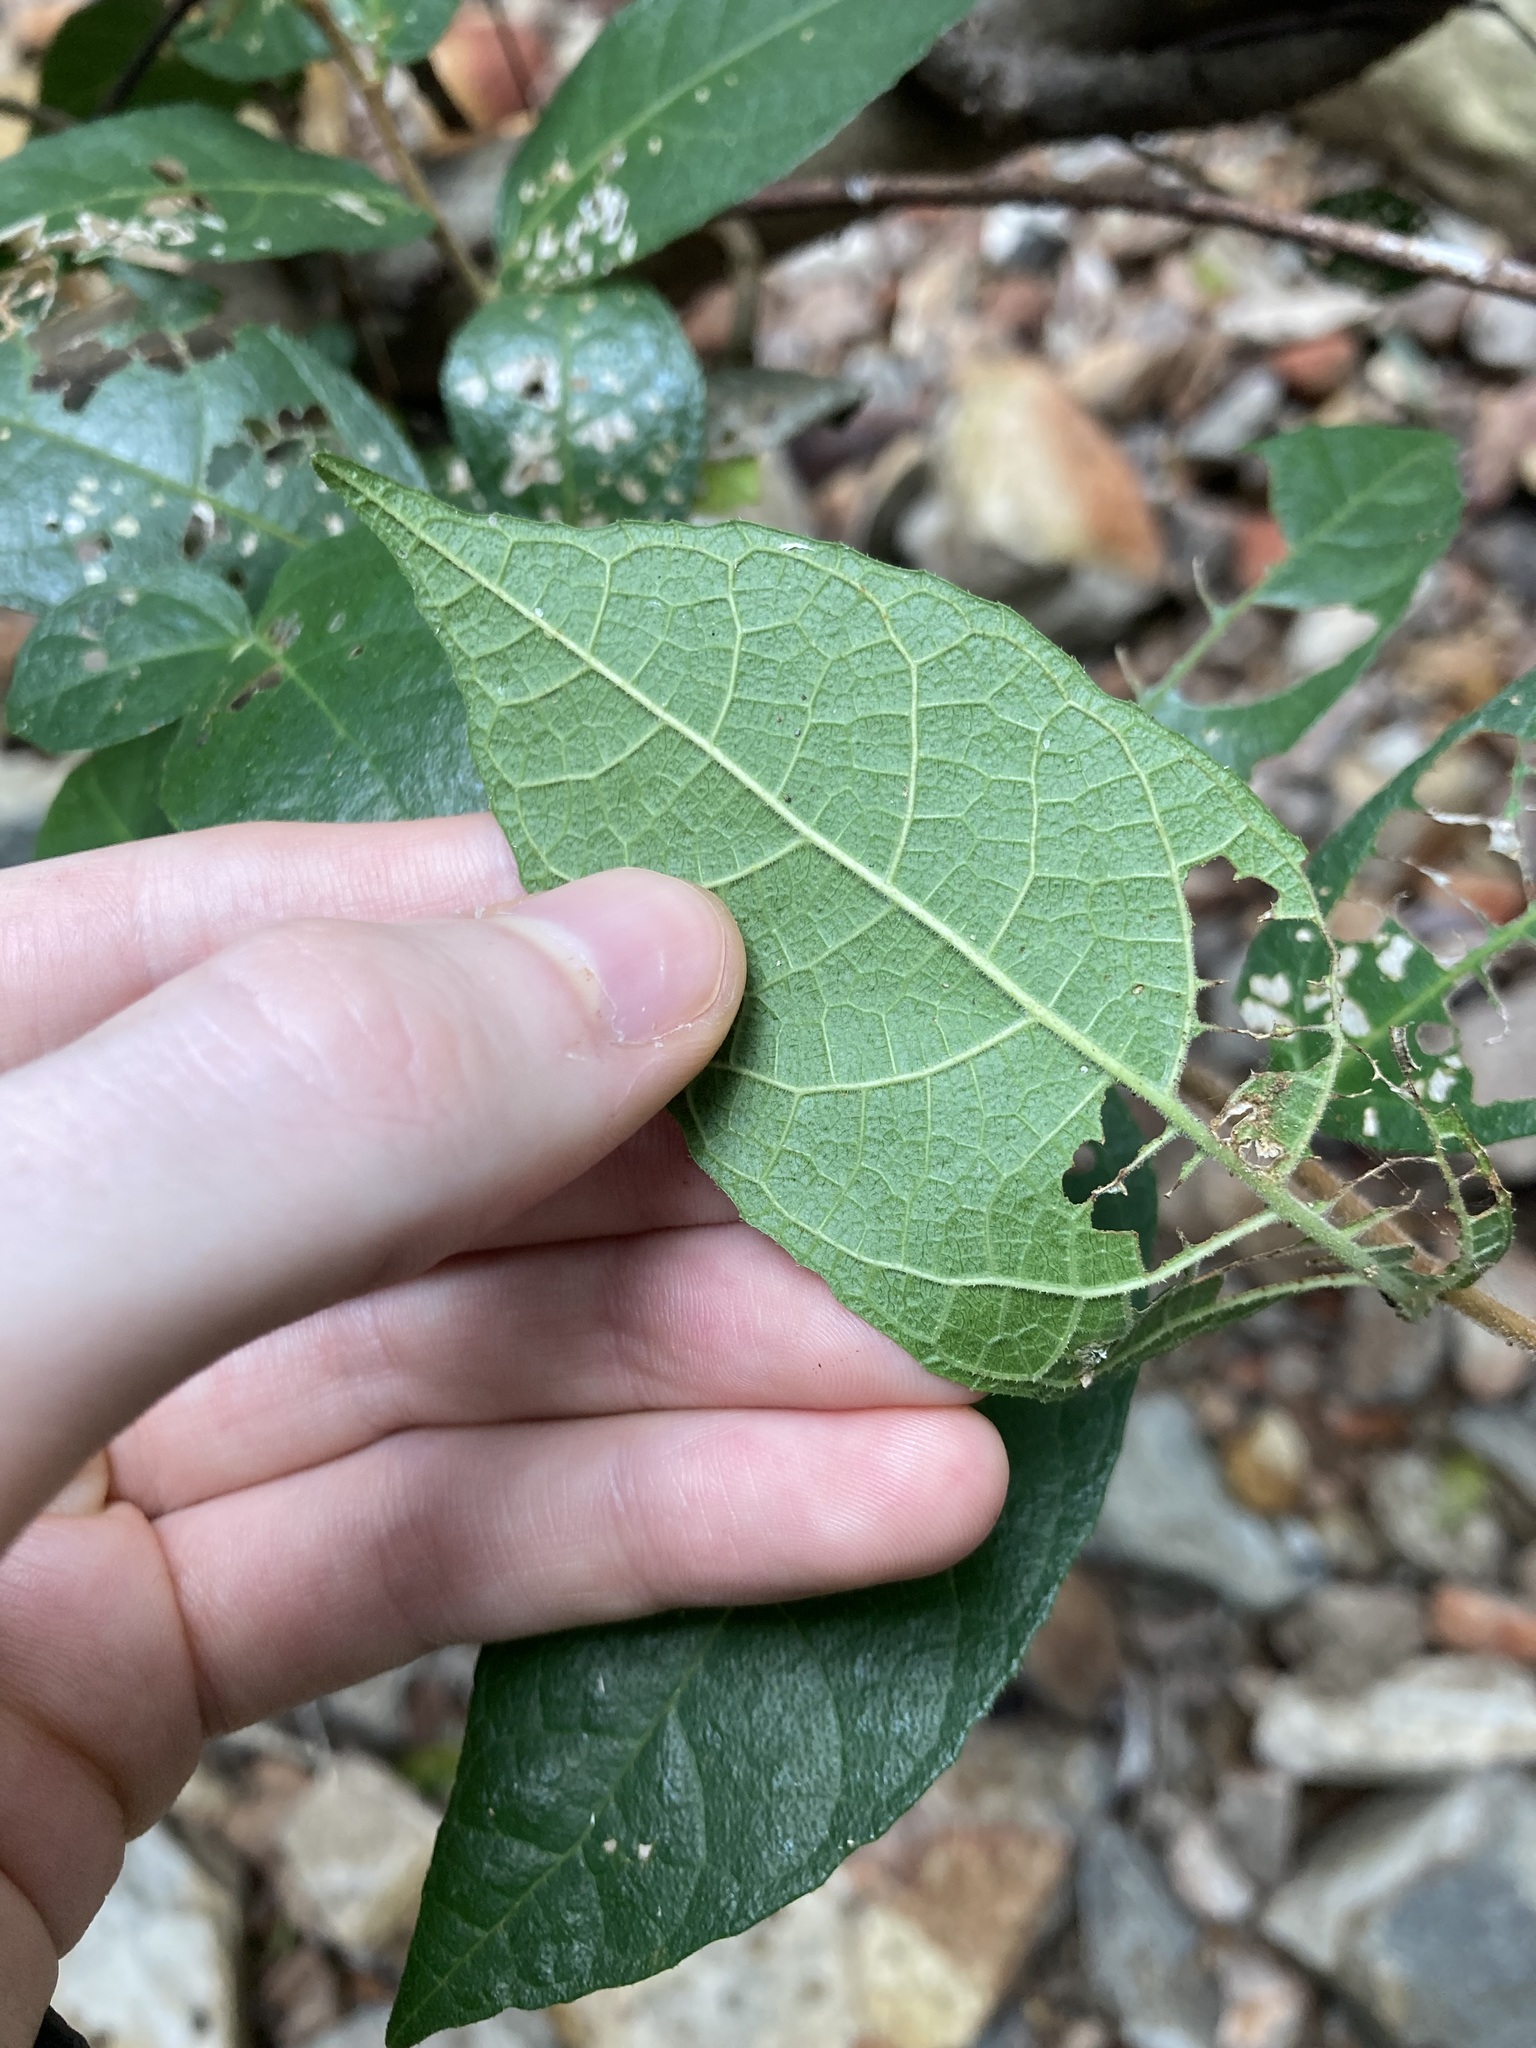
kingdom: Plantae
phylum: Tracheophyta
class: Magnoliopsida
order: Rosales
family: Moraceae
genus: Ficus
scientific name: Ficus coronata
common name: Creek sandpaper fig
